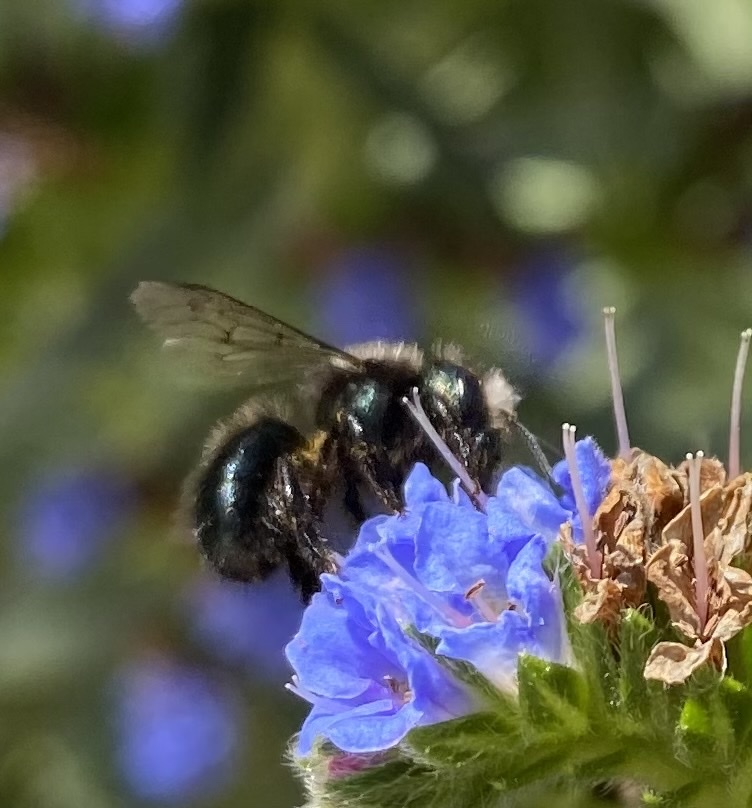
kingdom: Animalia
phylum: Arthropoda
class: Insecta
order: Hymenoptera
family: Megachilidae
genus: Osmia
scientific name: Osmia lignaria
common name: Blue orchard bee
